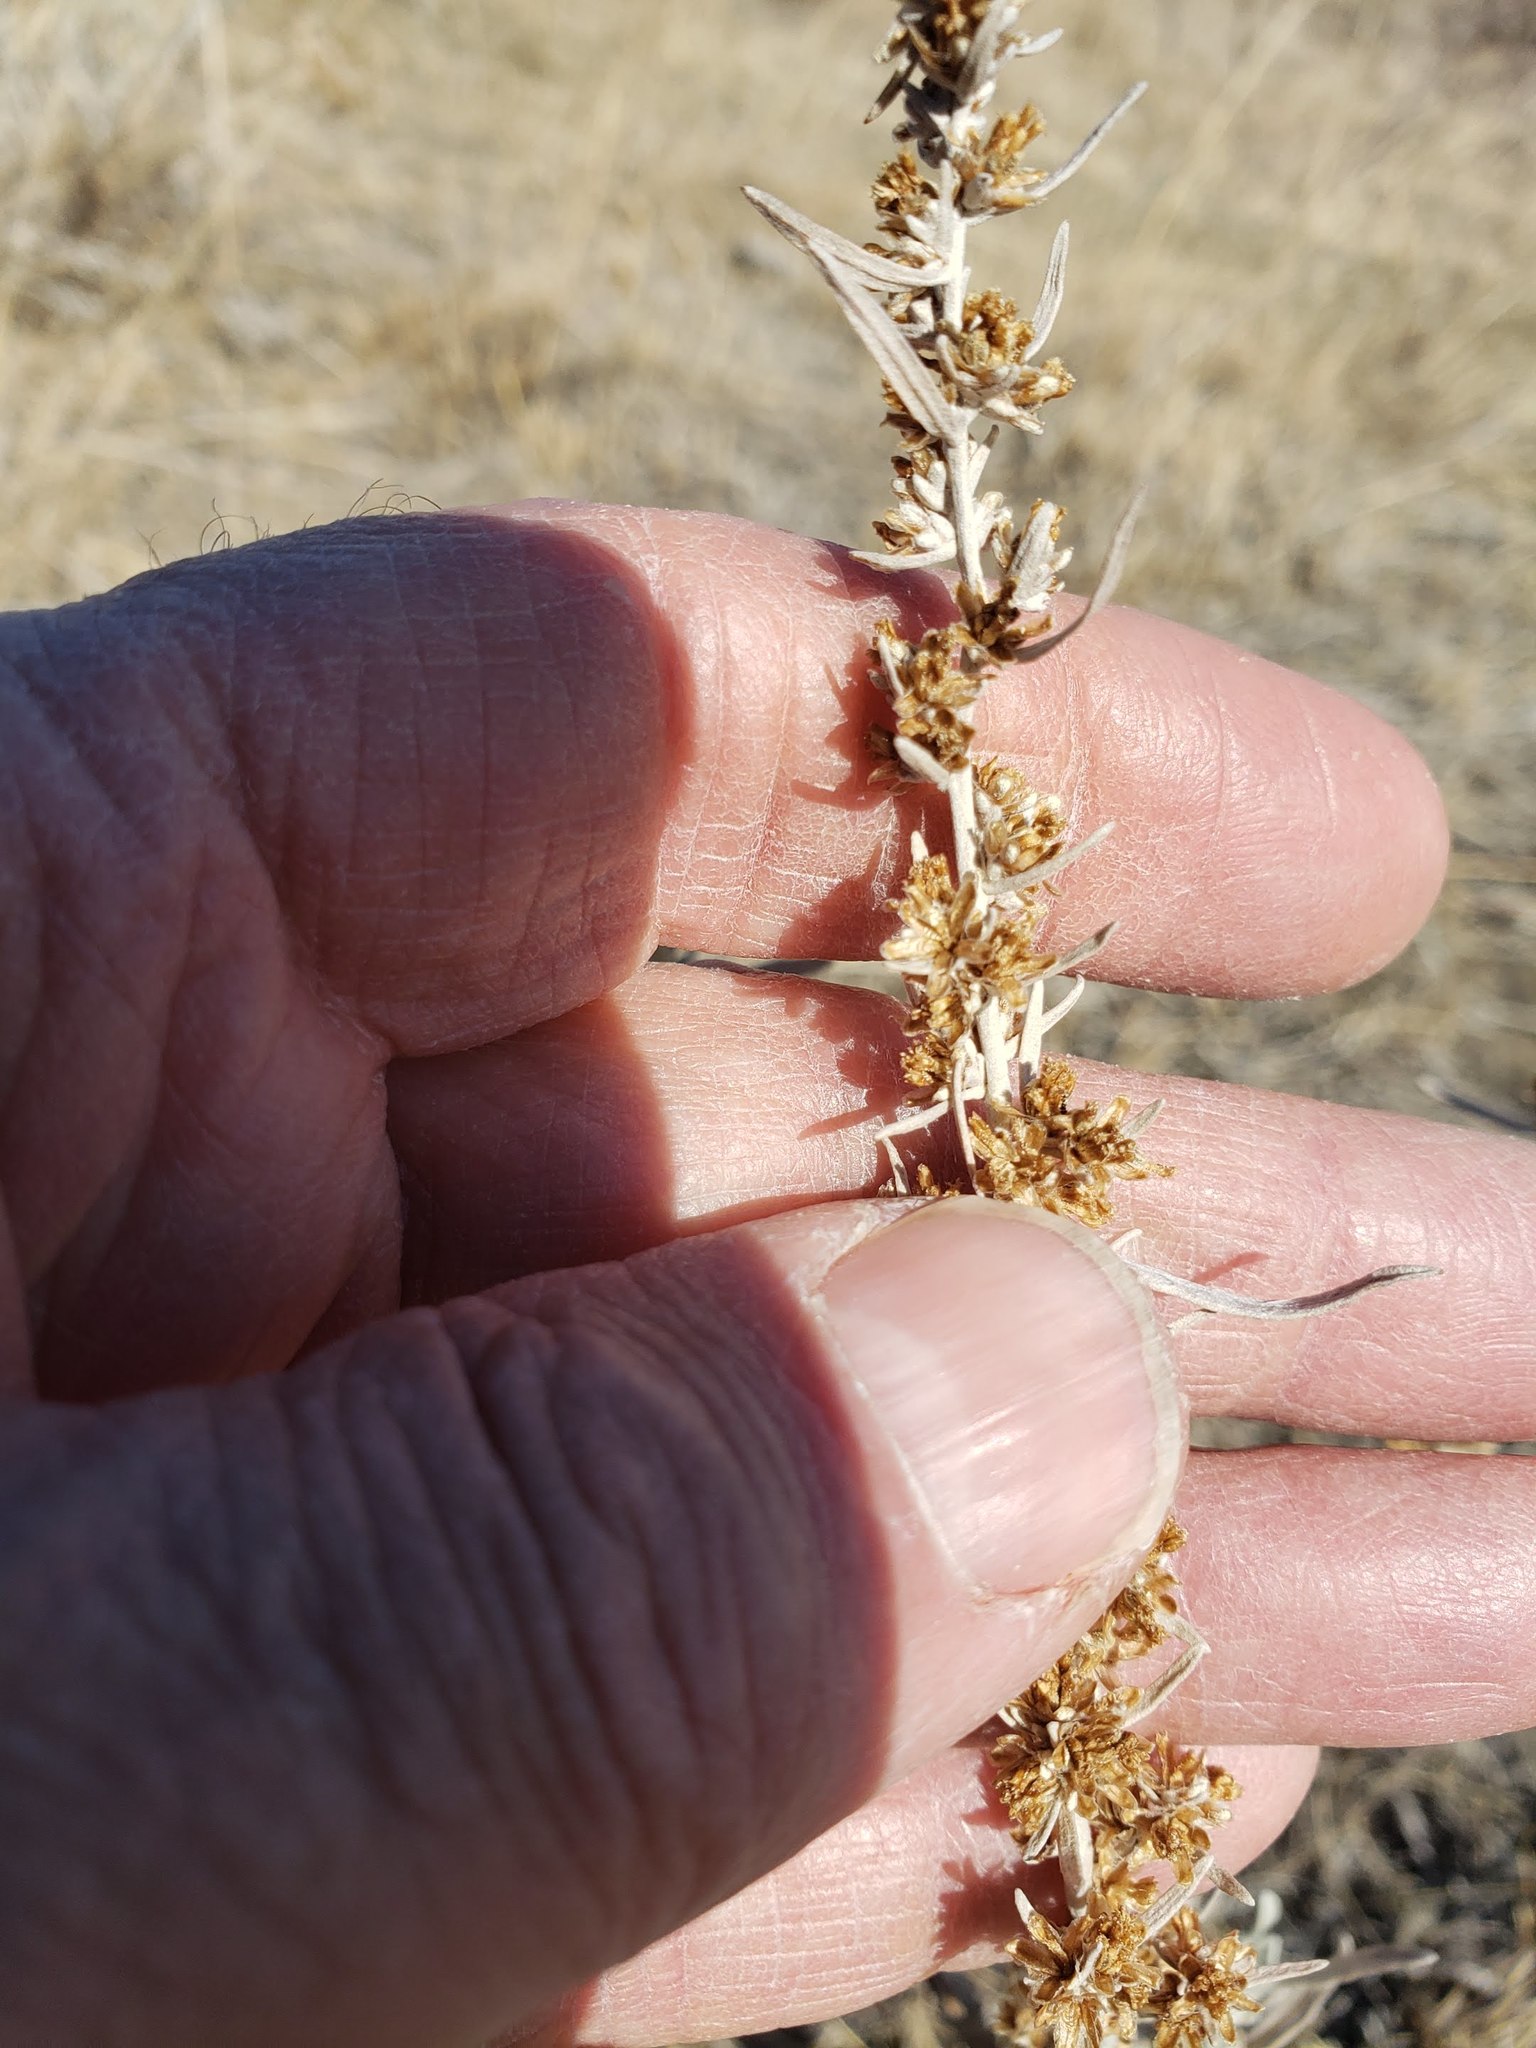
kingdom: Plantae
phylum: Tracheophyta
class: Magnoliopsida
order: Asterales
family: Asteraceae
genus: Artemisia
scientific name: Artemisia cana
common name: Silver sagebrush
